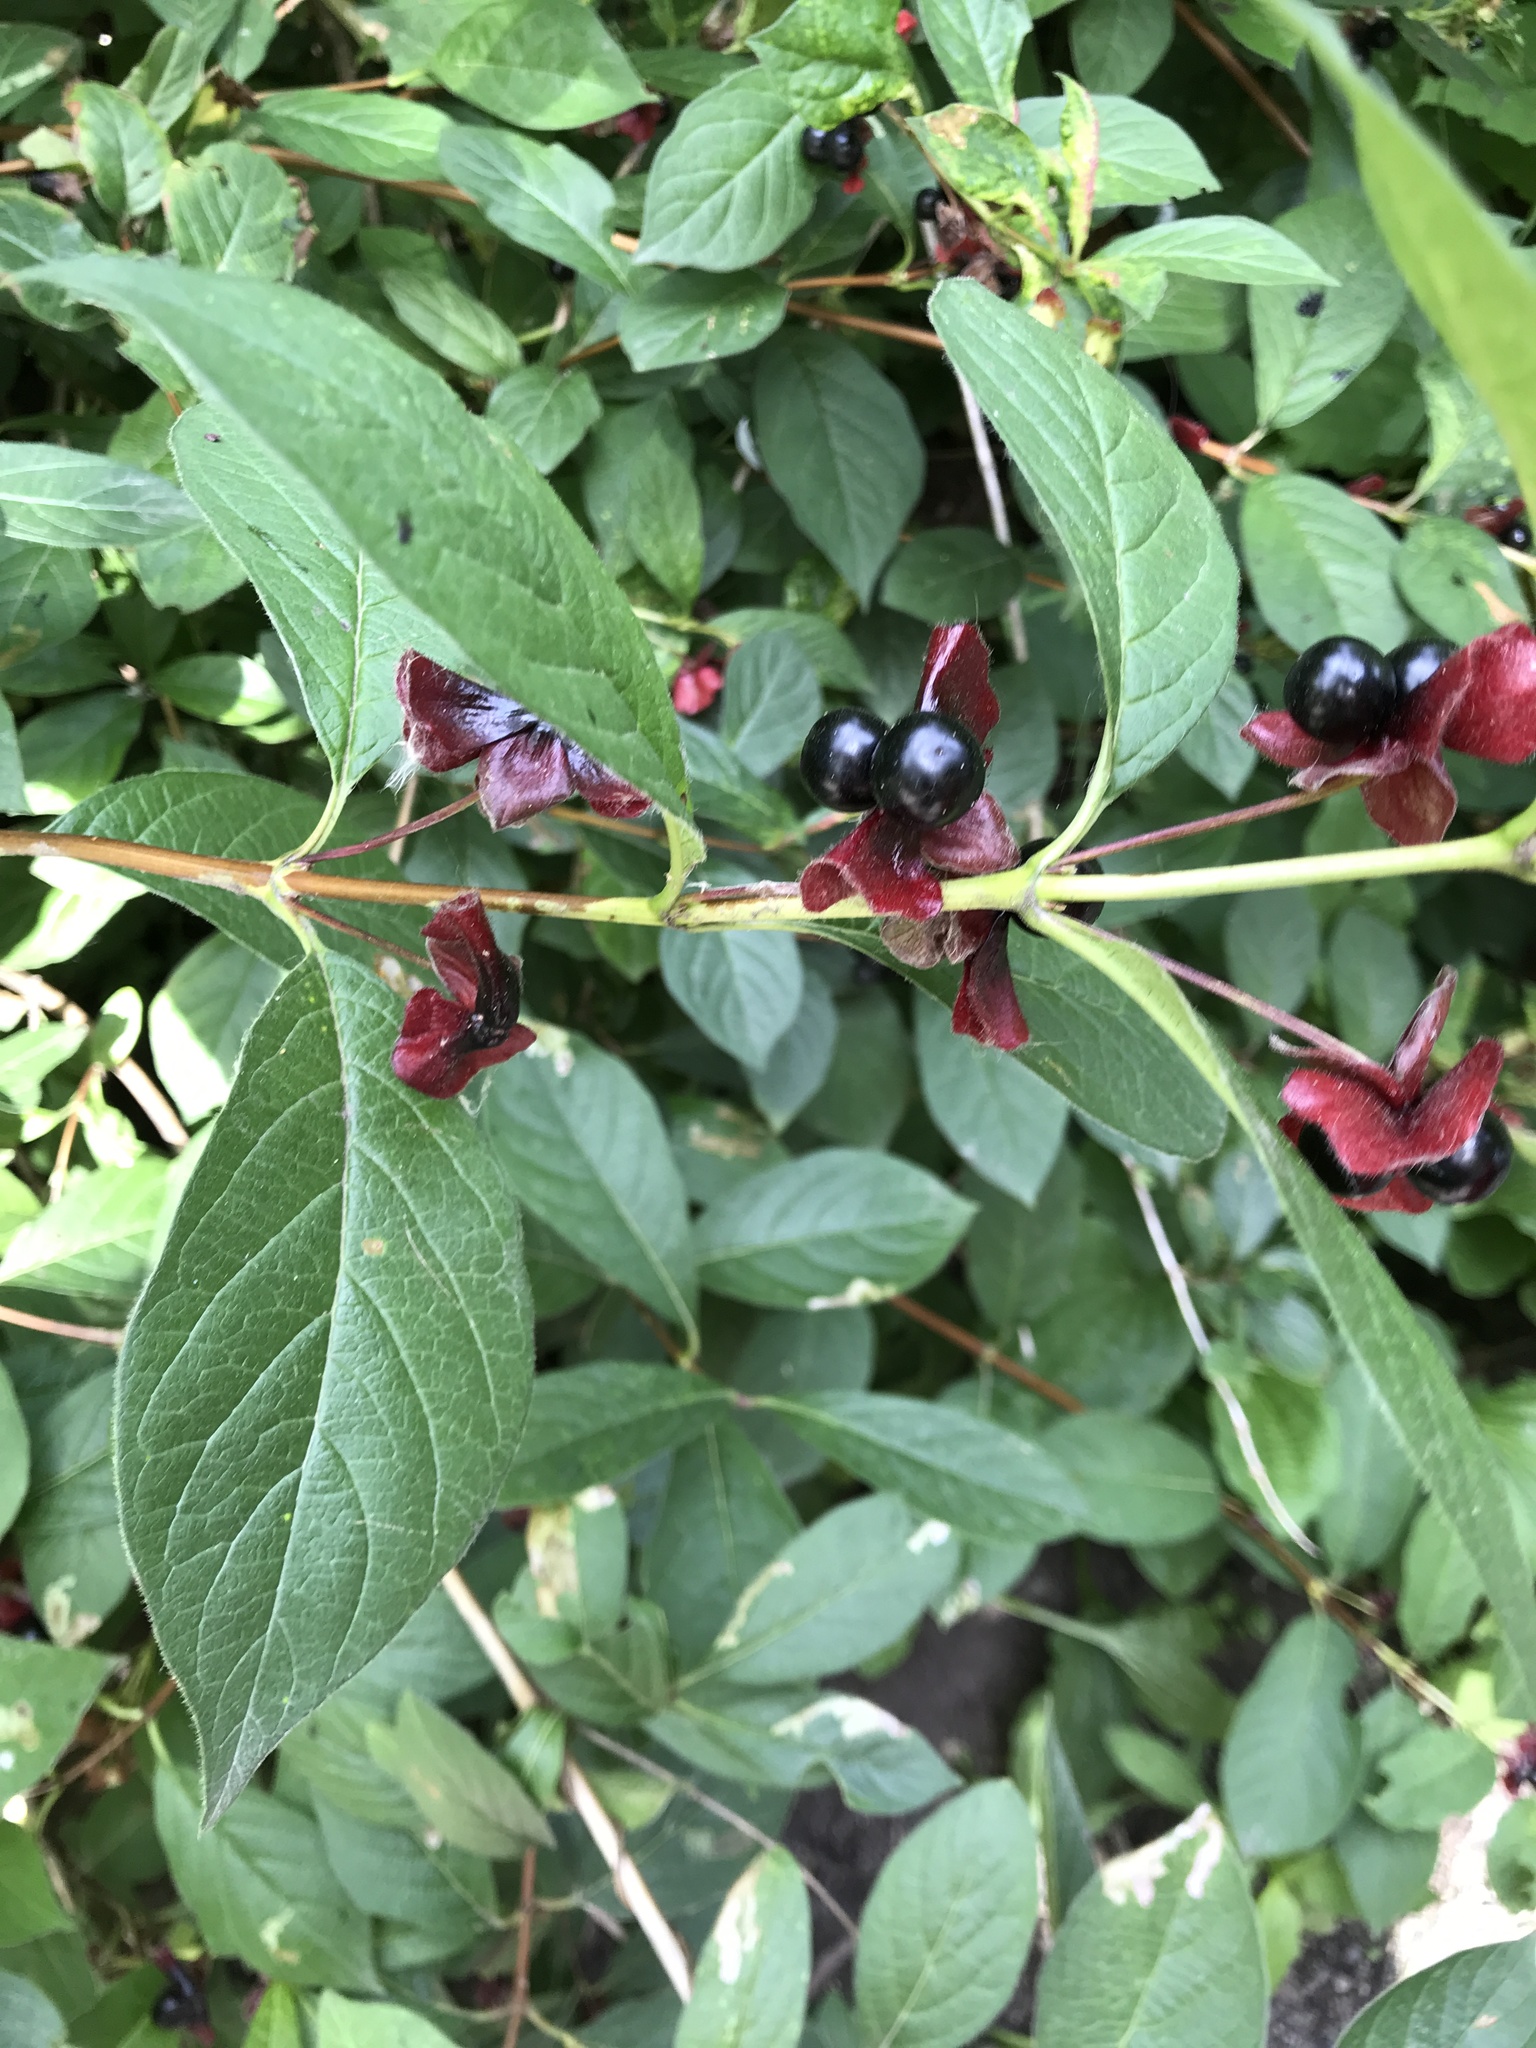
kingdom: Plantae
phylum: Tracheophyta
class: Magnoliopsida
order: Dipsacales
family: Caprifoliaceae
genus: Lonicera
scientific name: Lonicera involucrata
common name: Californian honeysuckle
